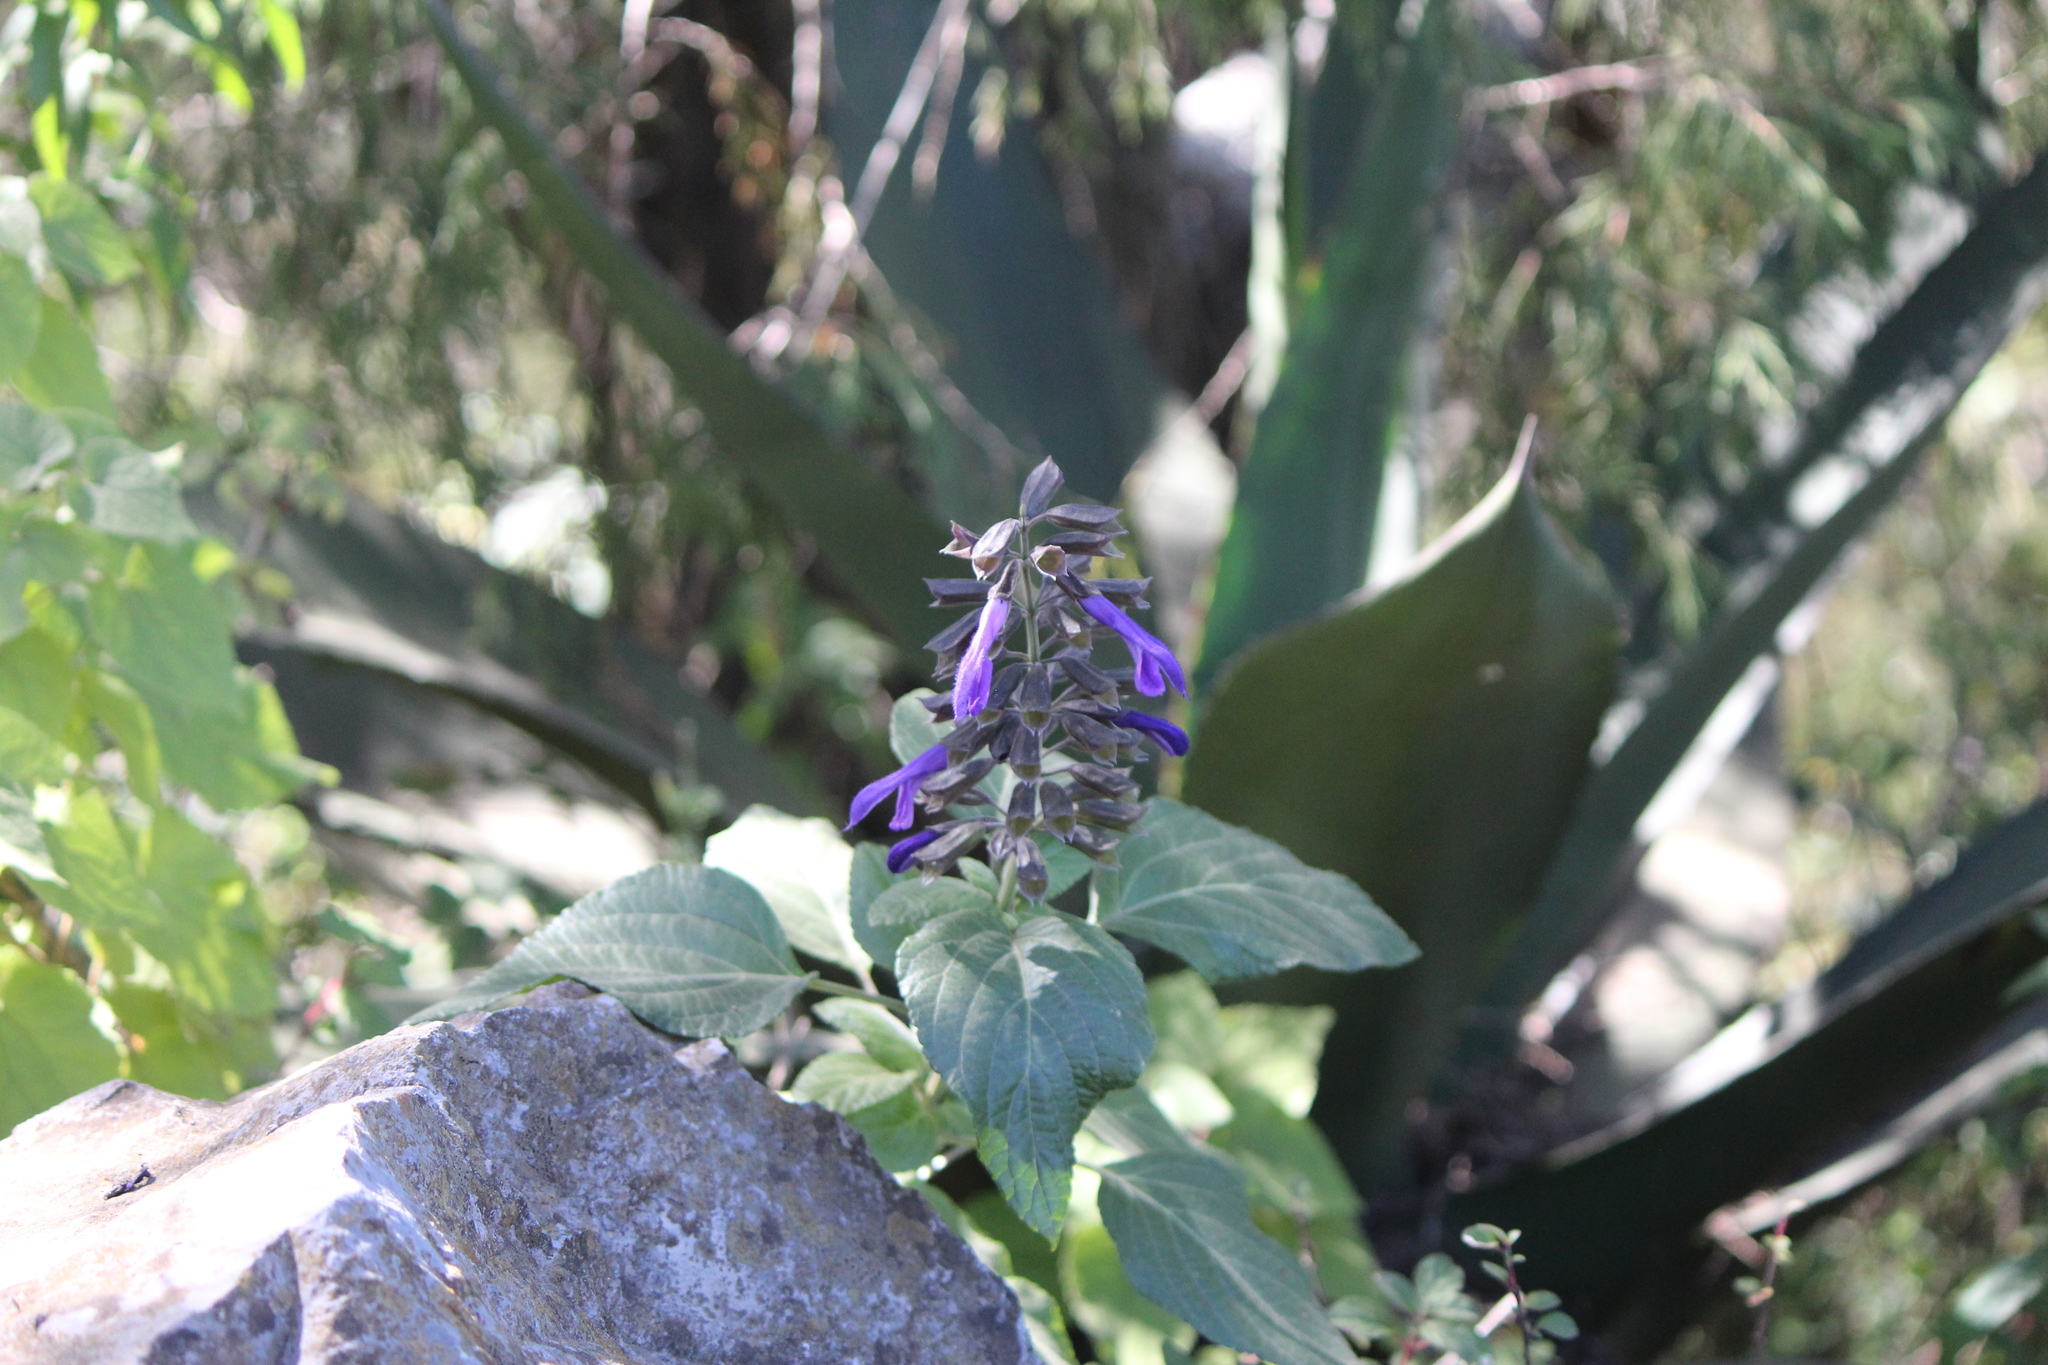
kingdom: Plantae
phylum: Tracheophyta
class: Magnoliopsida
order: Lamiales
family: Lamiaceae
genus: Salvia
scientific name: Salvia mexicana
